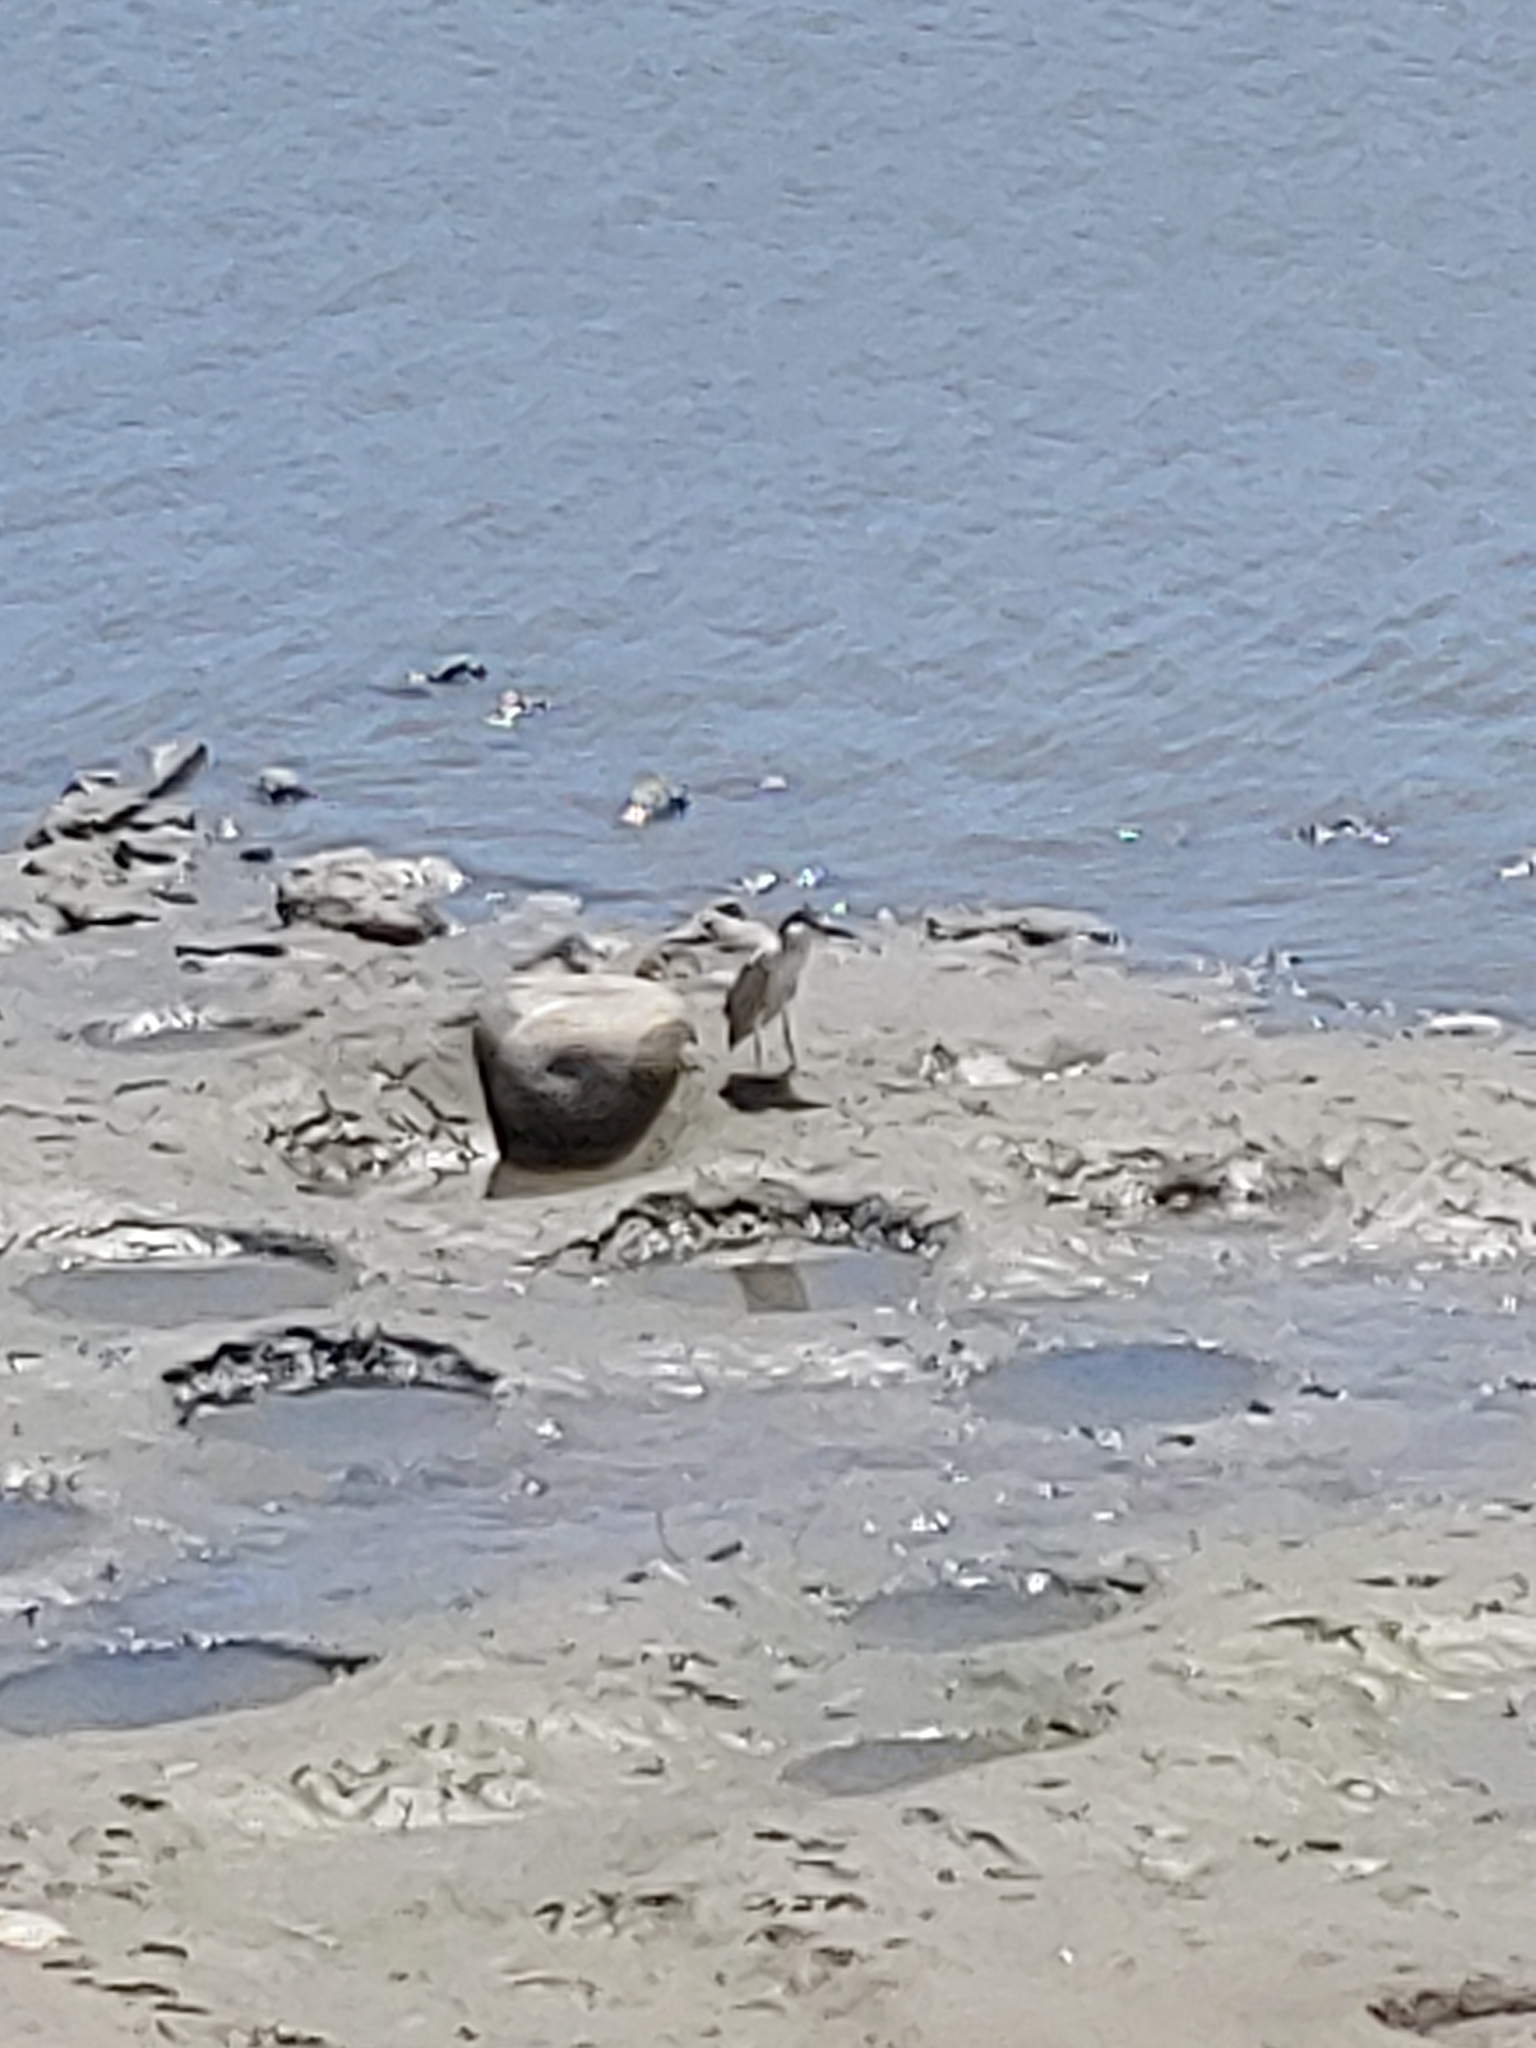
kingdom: Animalia
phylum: Chordata
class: Aves
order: Pelecaniformes
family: Ardeidae
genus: Nycticorax
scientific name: Nycticorax nycticorax
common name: Black-crowned night heron
